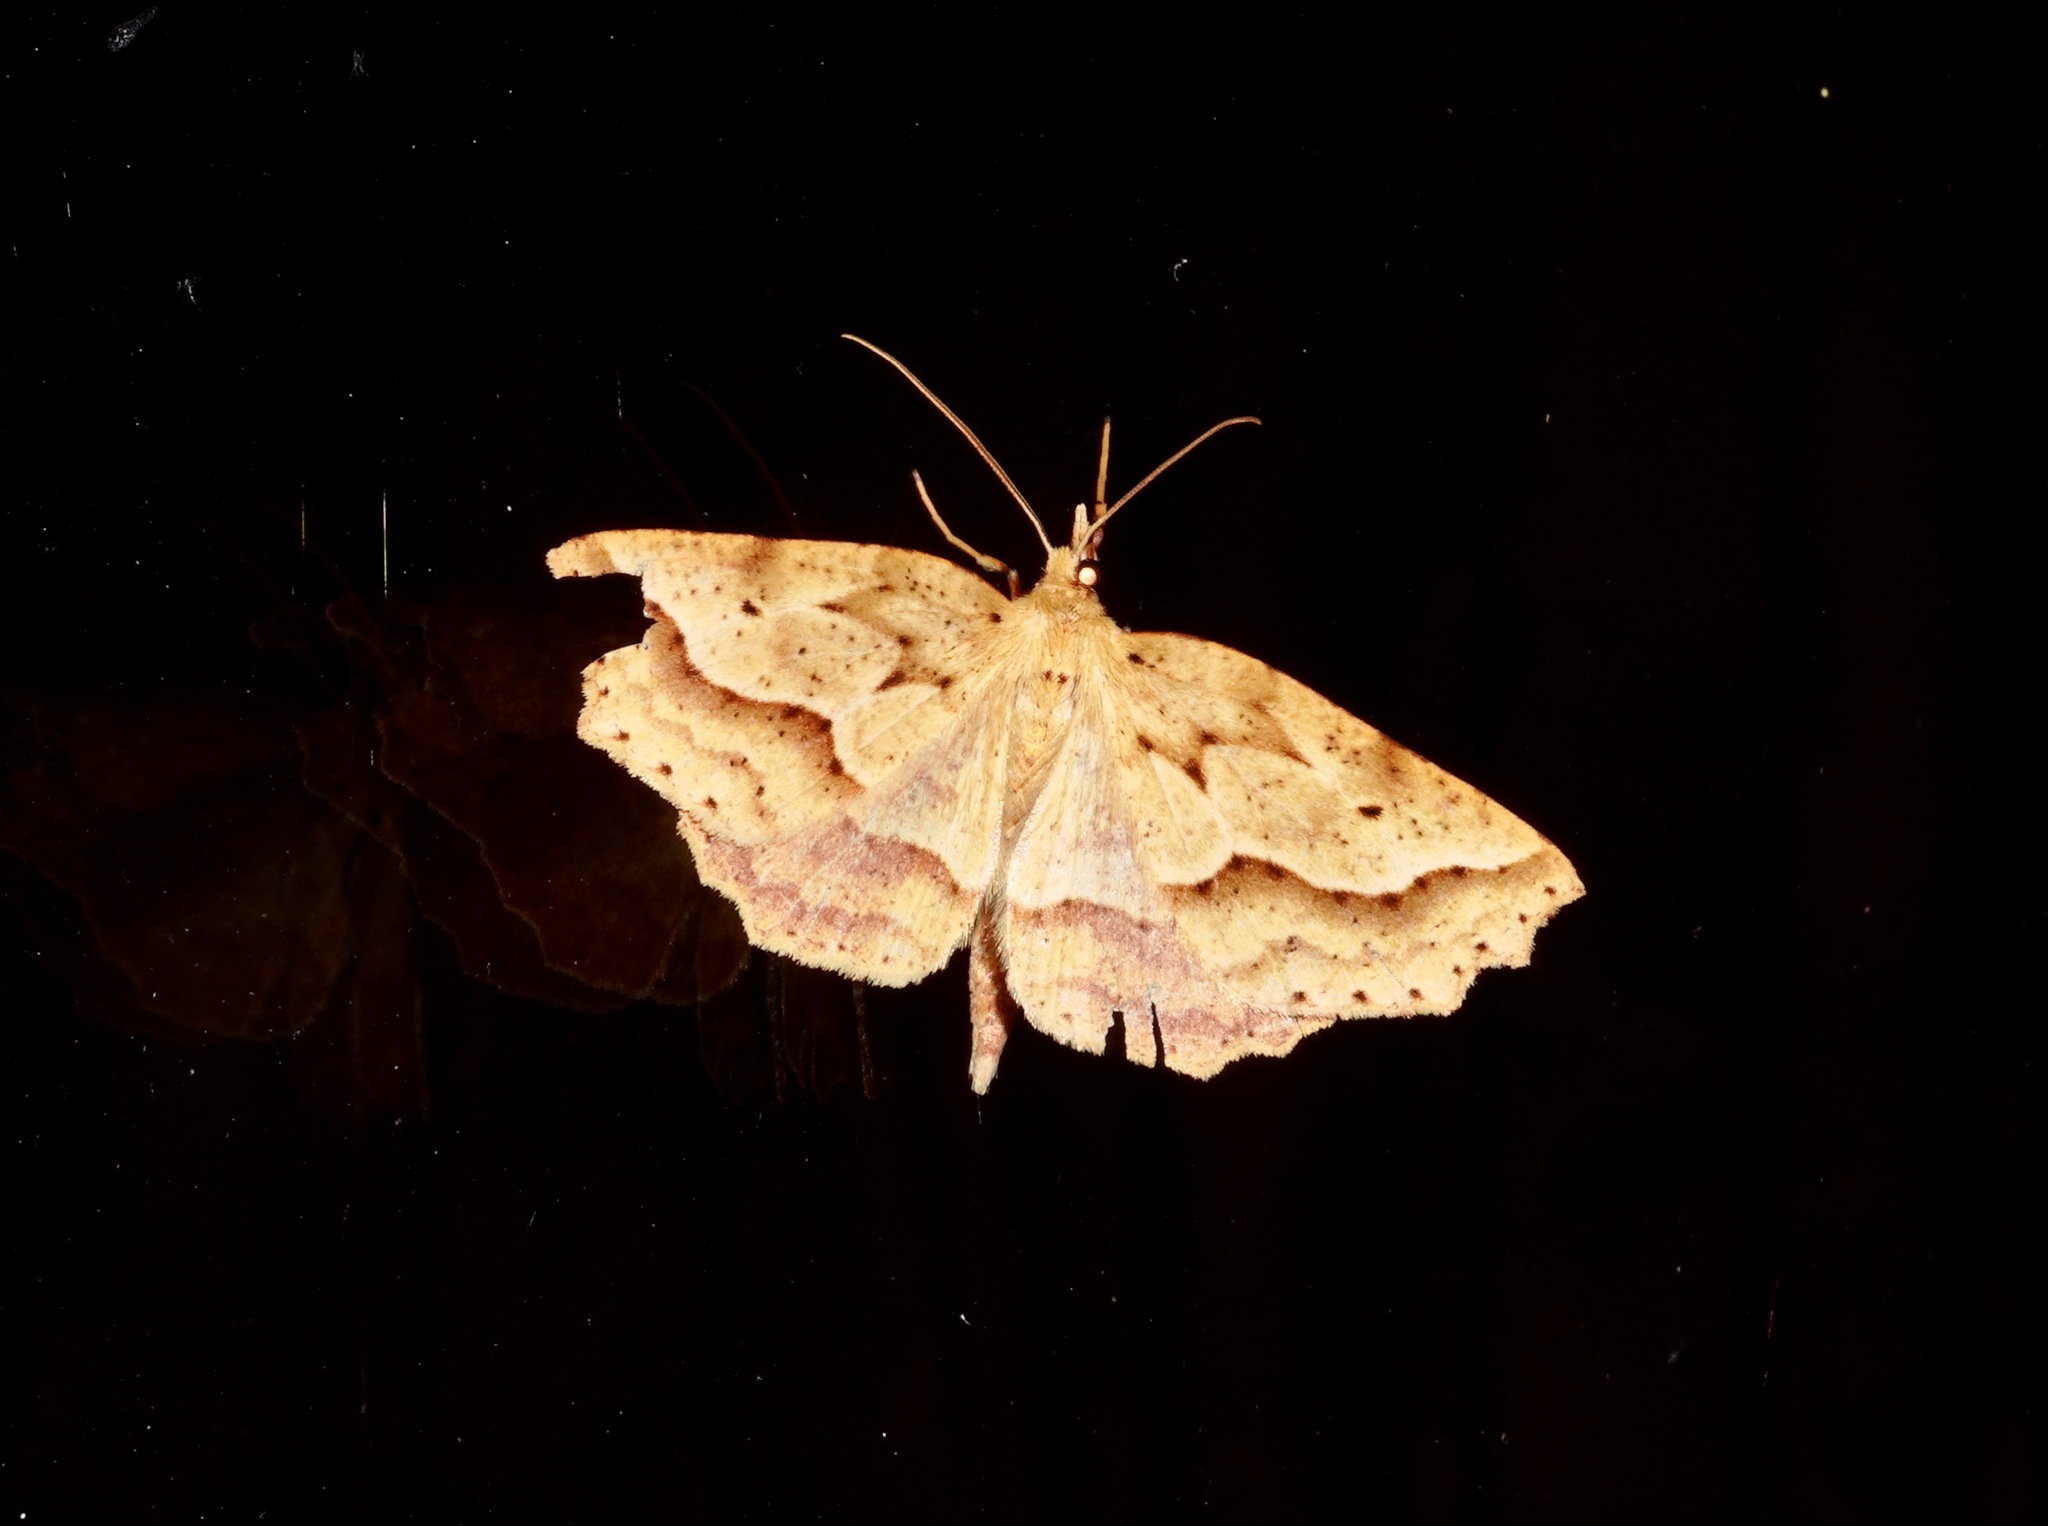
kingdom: Animalia
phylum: Arthropoda
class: Insecta
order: Lepidoptera
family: Geometridae
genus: Ischalis
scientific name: Ischalis variabilis
